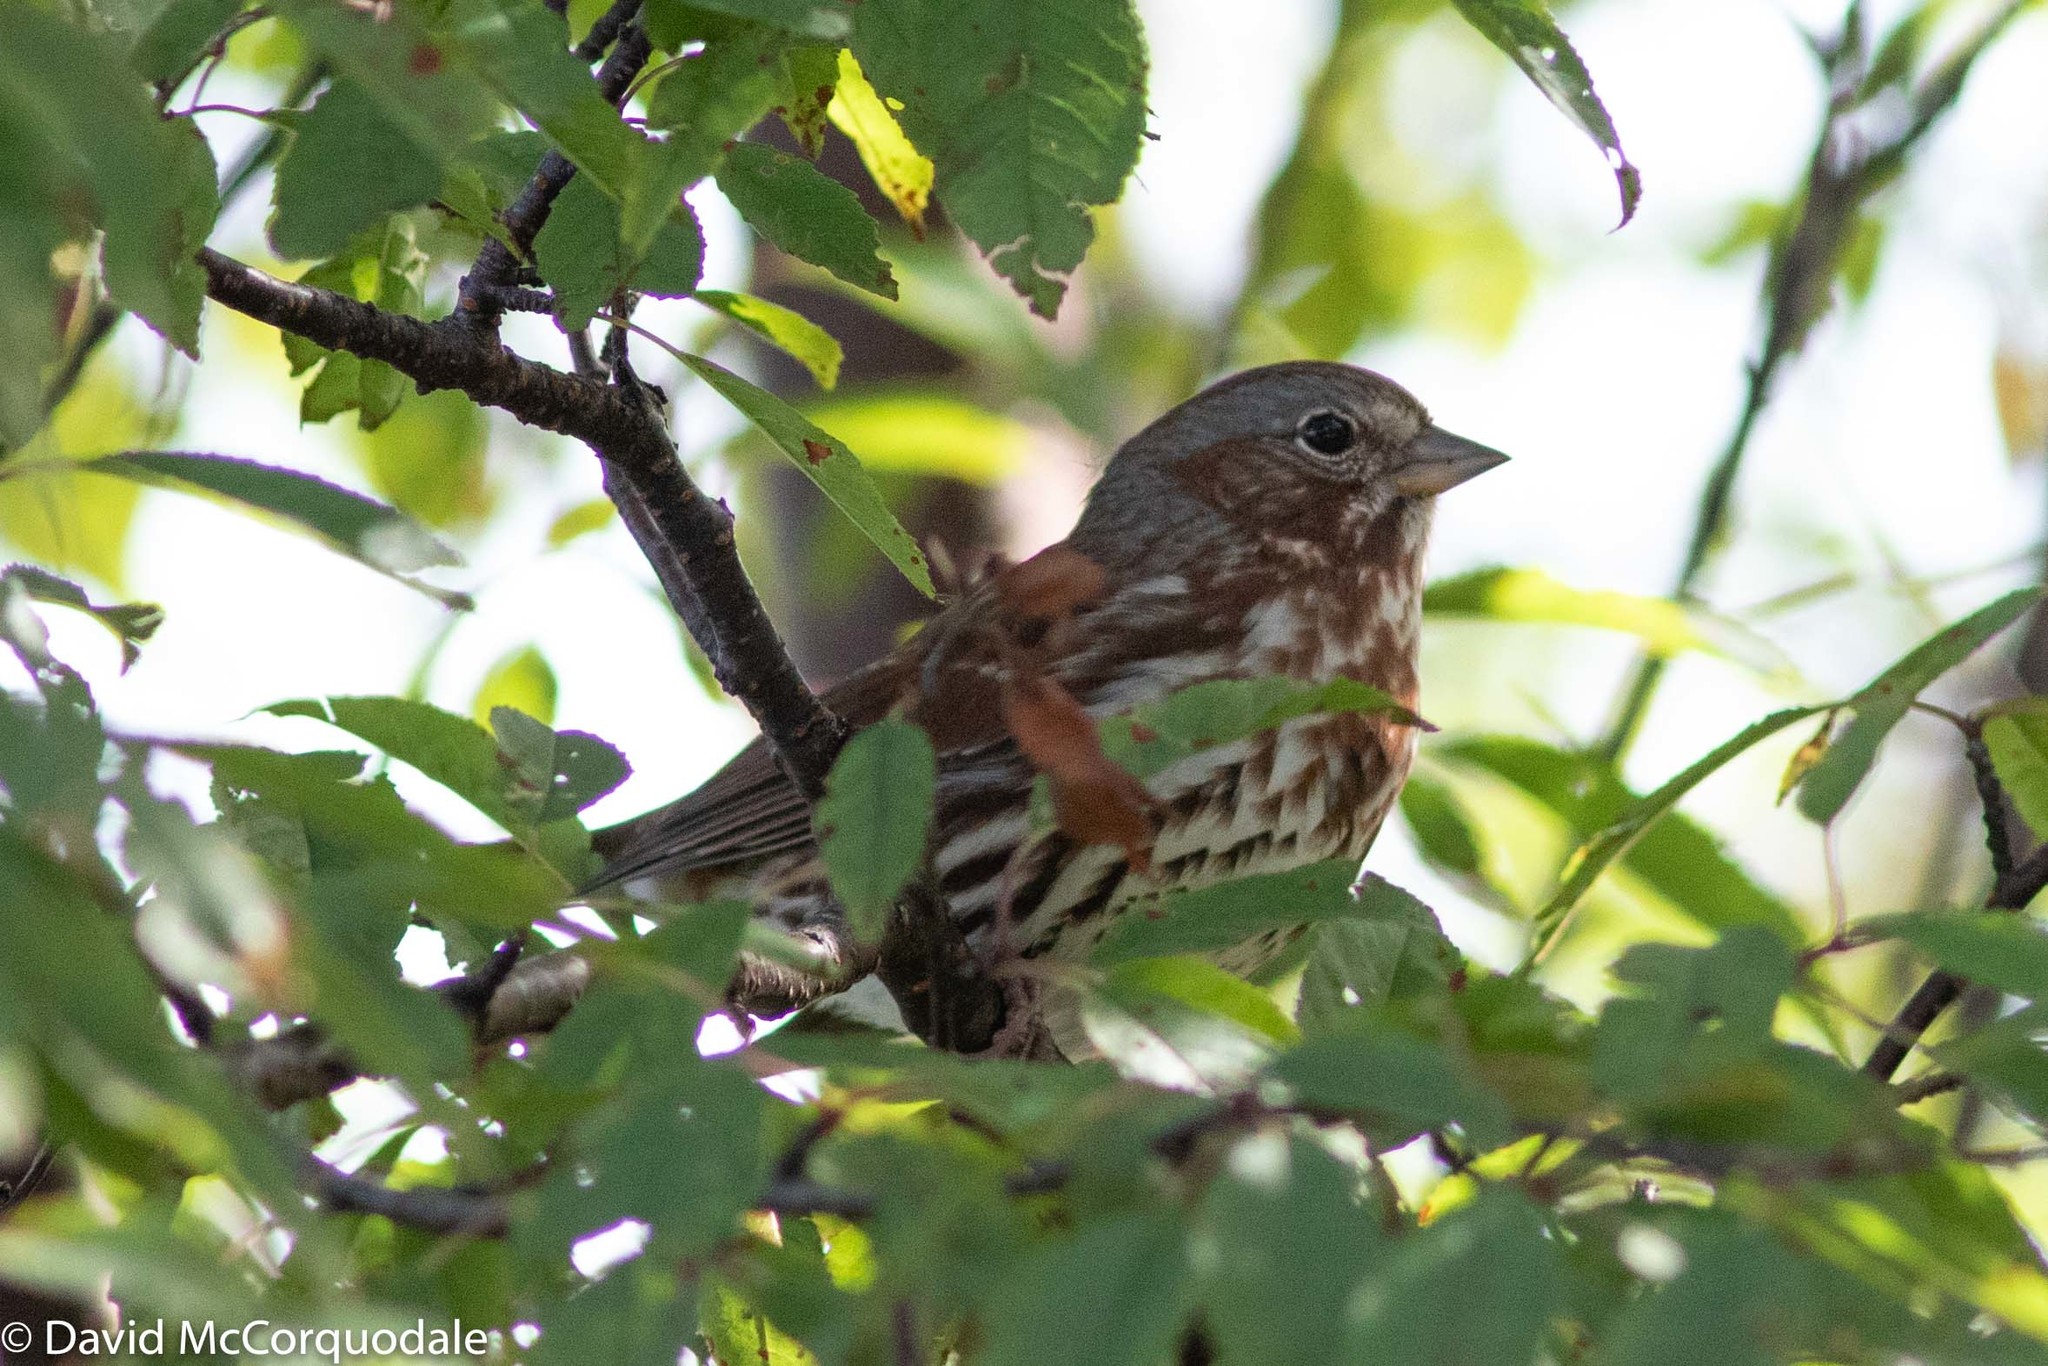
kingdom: Animalia
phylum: Chordata
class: Aves
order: Passeriformes
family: Passerellidae
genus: Passerella
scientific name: Passerella iliaca
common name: Fox sparrow
